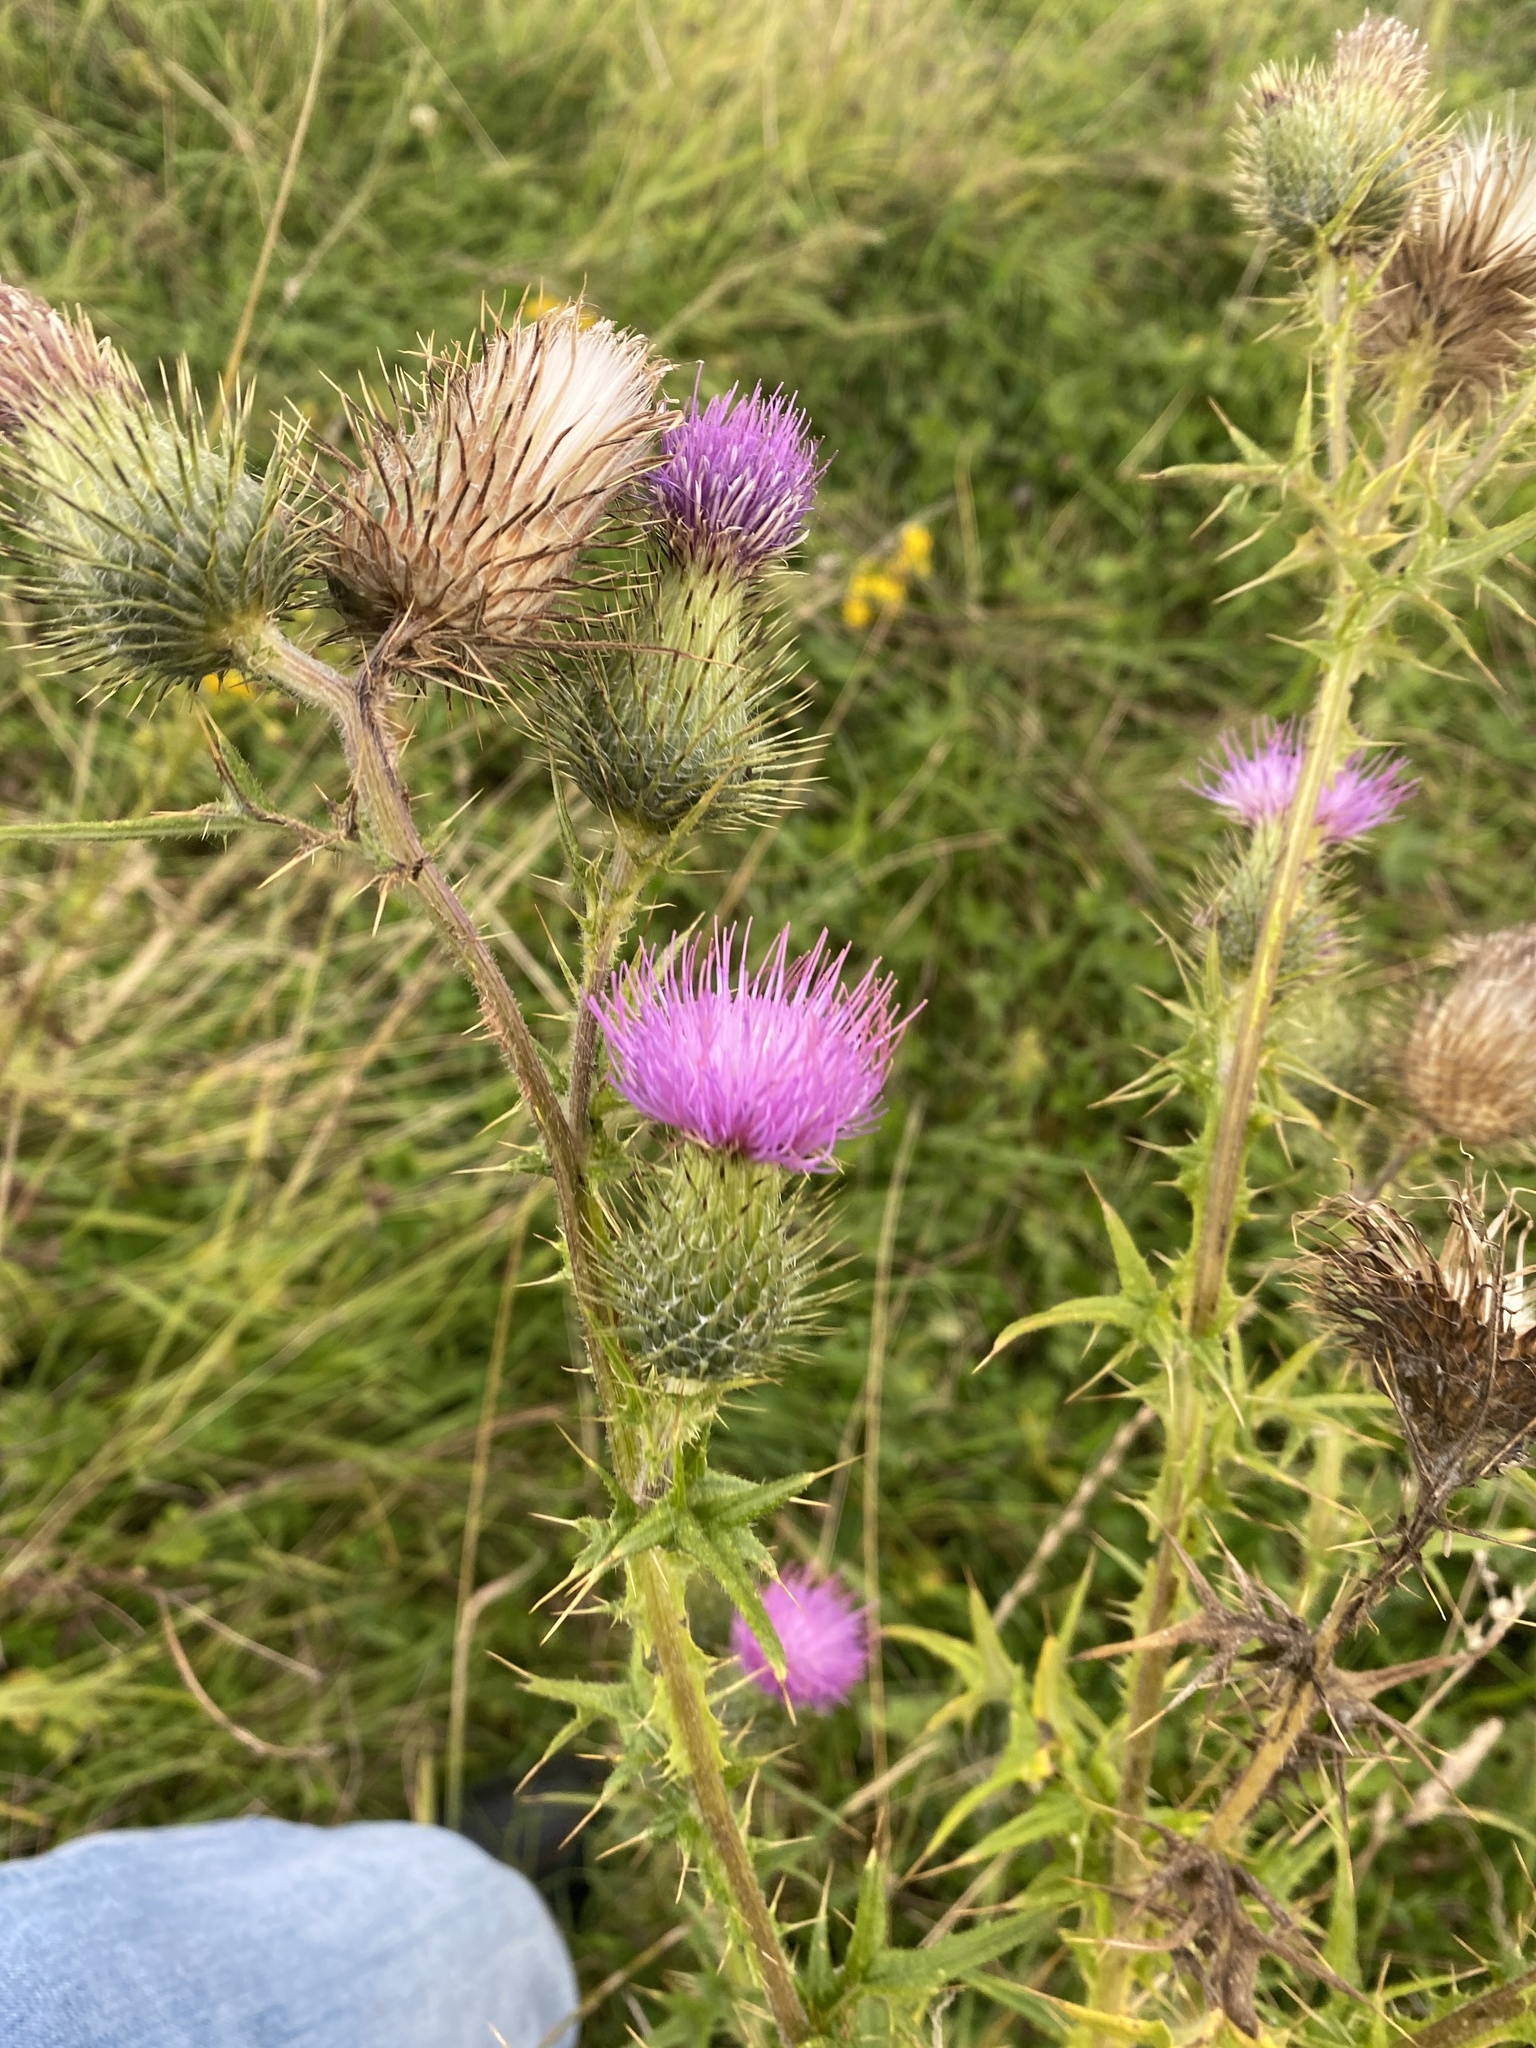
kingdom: Plantae
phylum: Tracheophyta
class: Magnoliopsida
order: Asterales
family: Asteraceae
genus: Cirsium
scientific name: Cirsium vulgare
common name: Bull thistle
